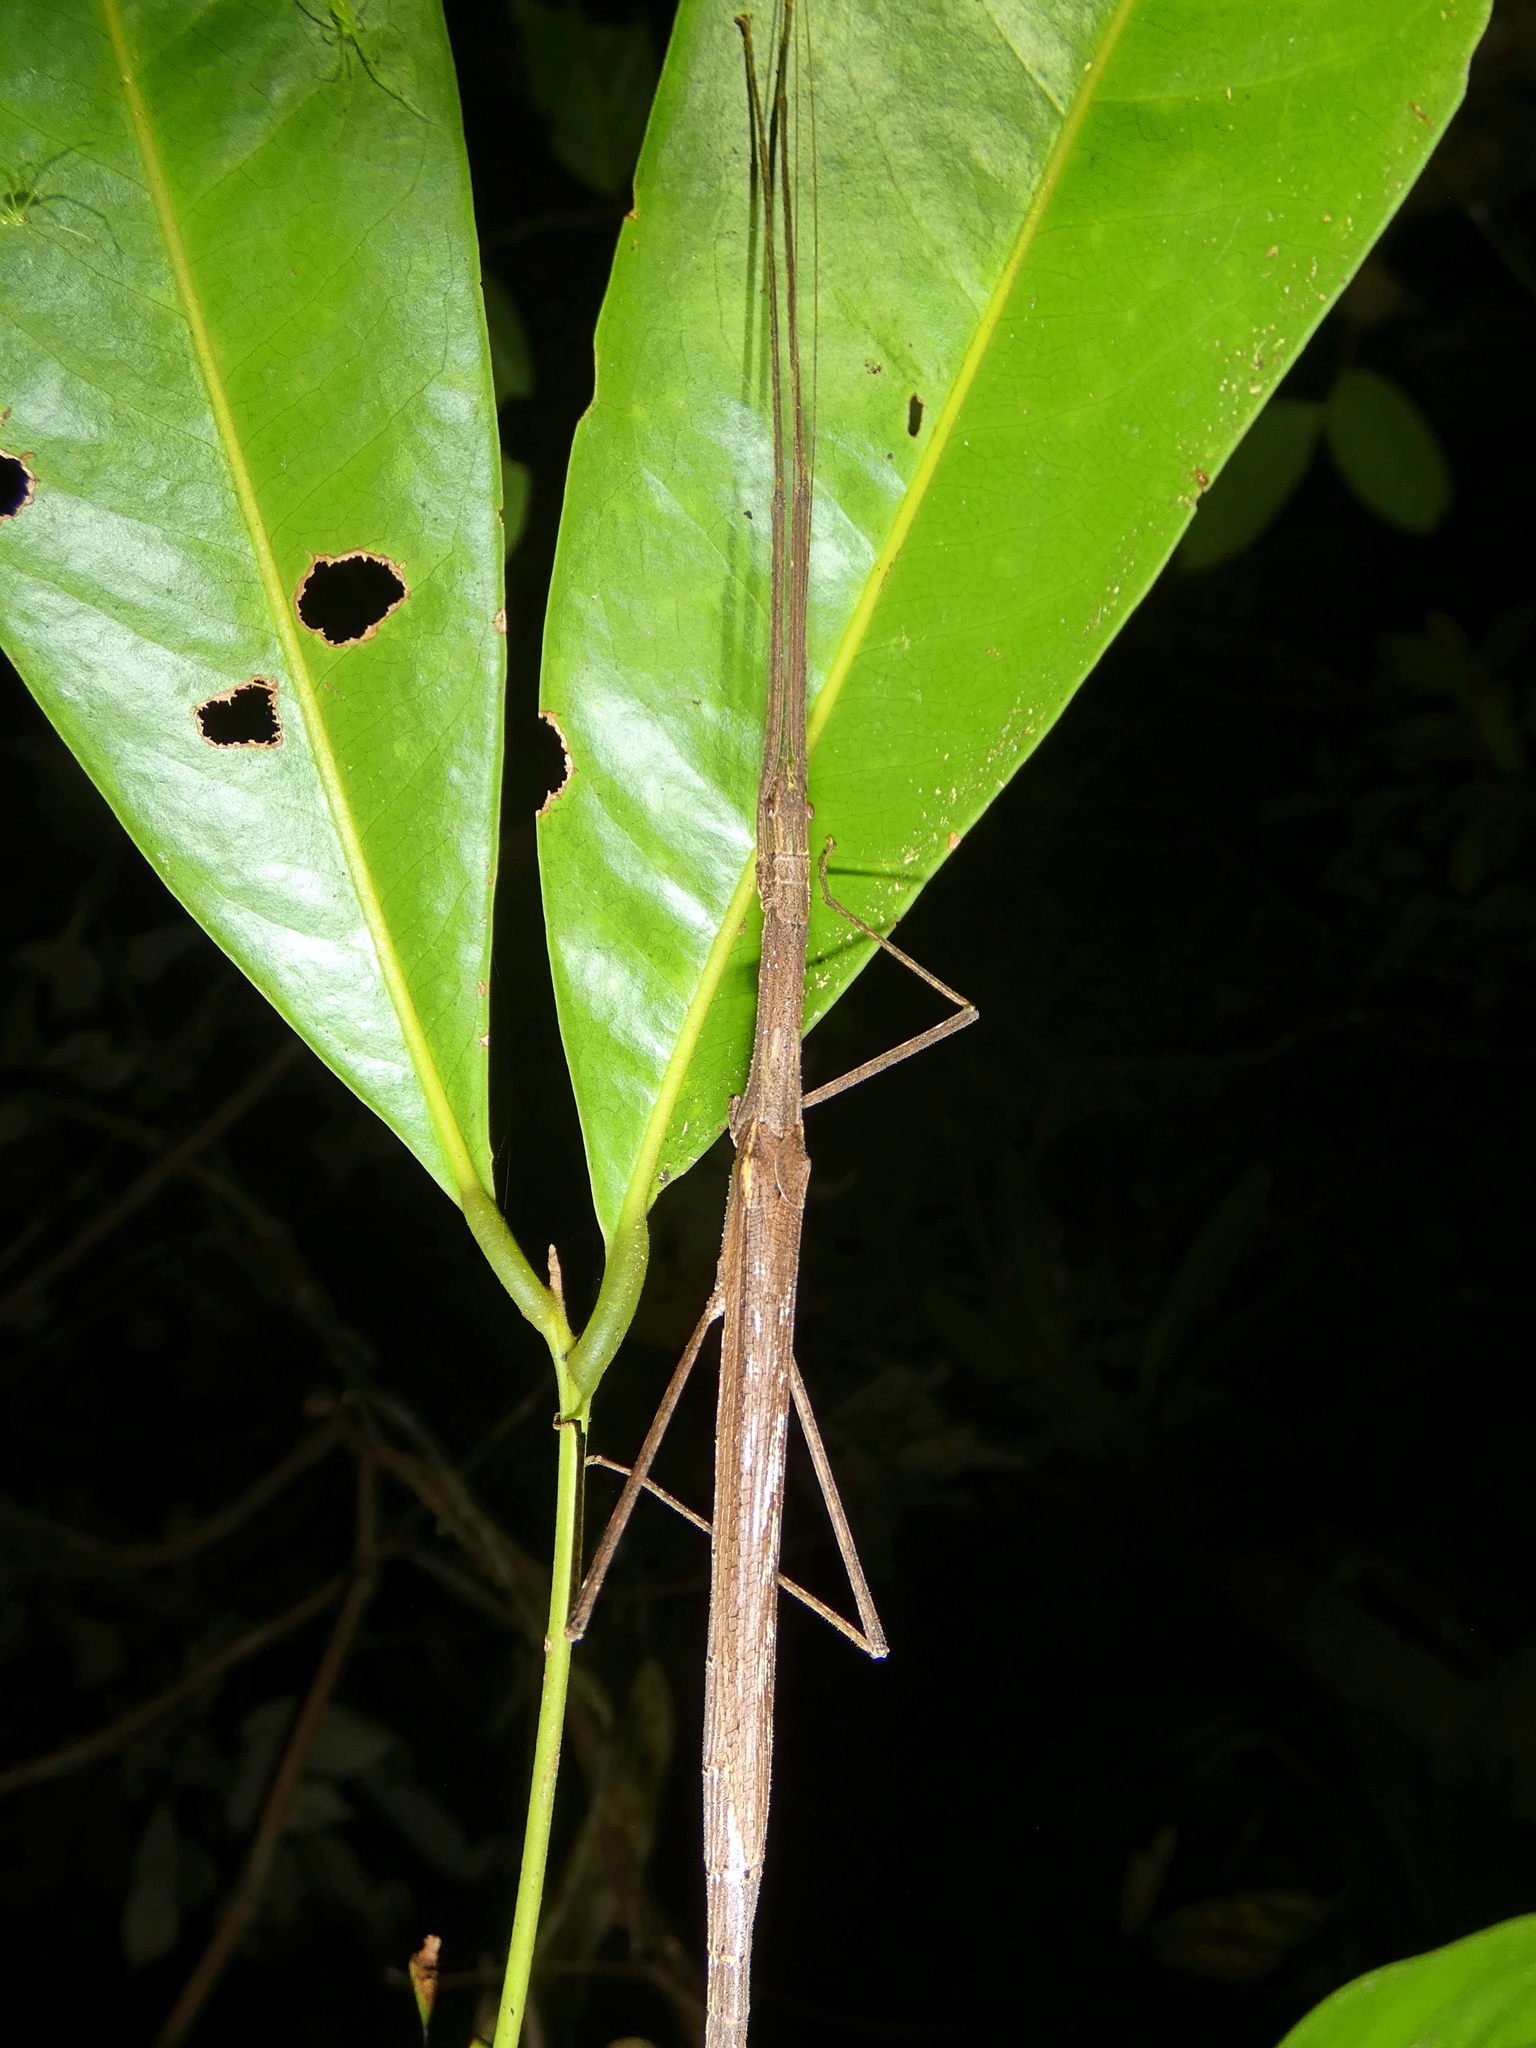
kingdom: Animalia
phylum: Arthropoda
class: Insecta
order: Phasmida
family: Lonchodidae
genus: Sipyloidea
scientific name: Sipyloidea larryi
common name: Hurricane larry stick-insect
